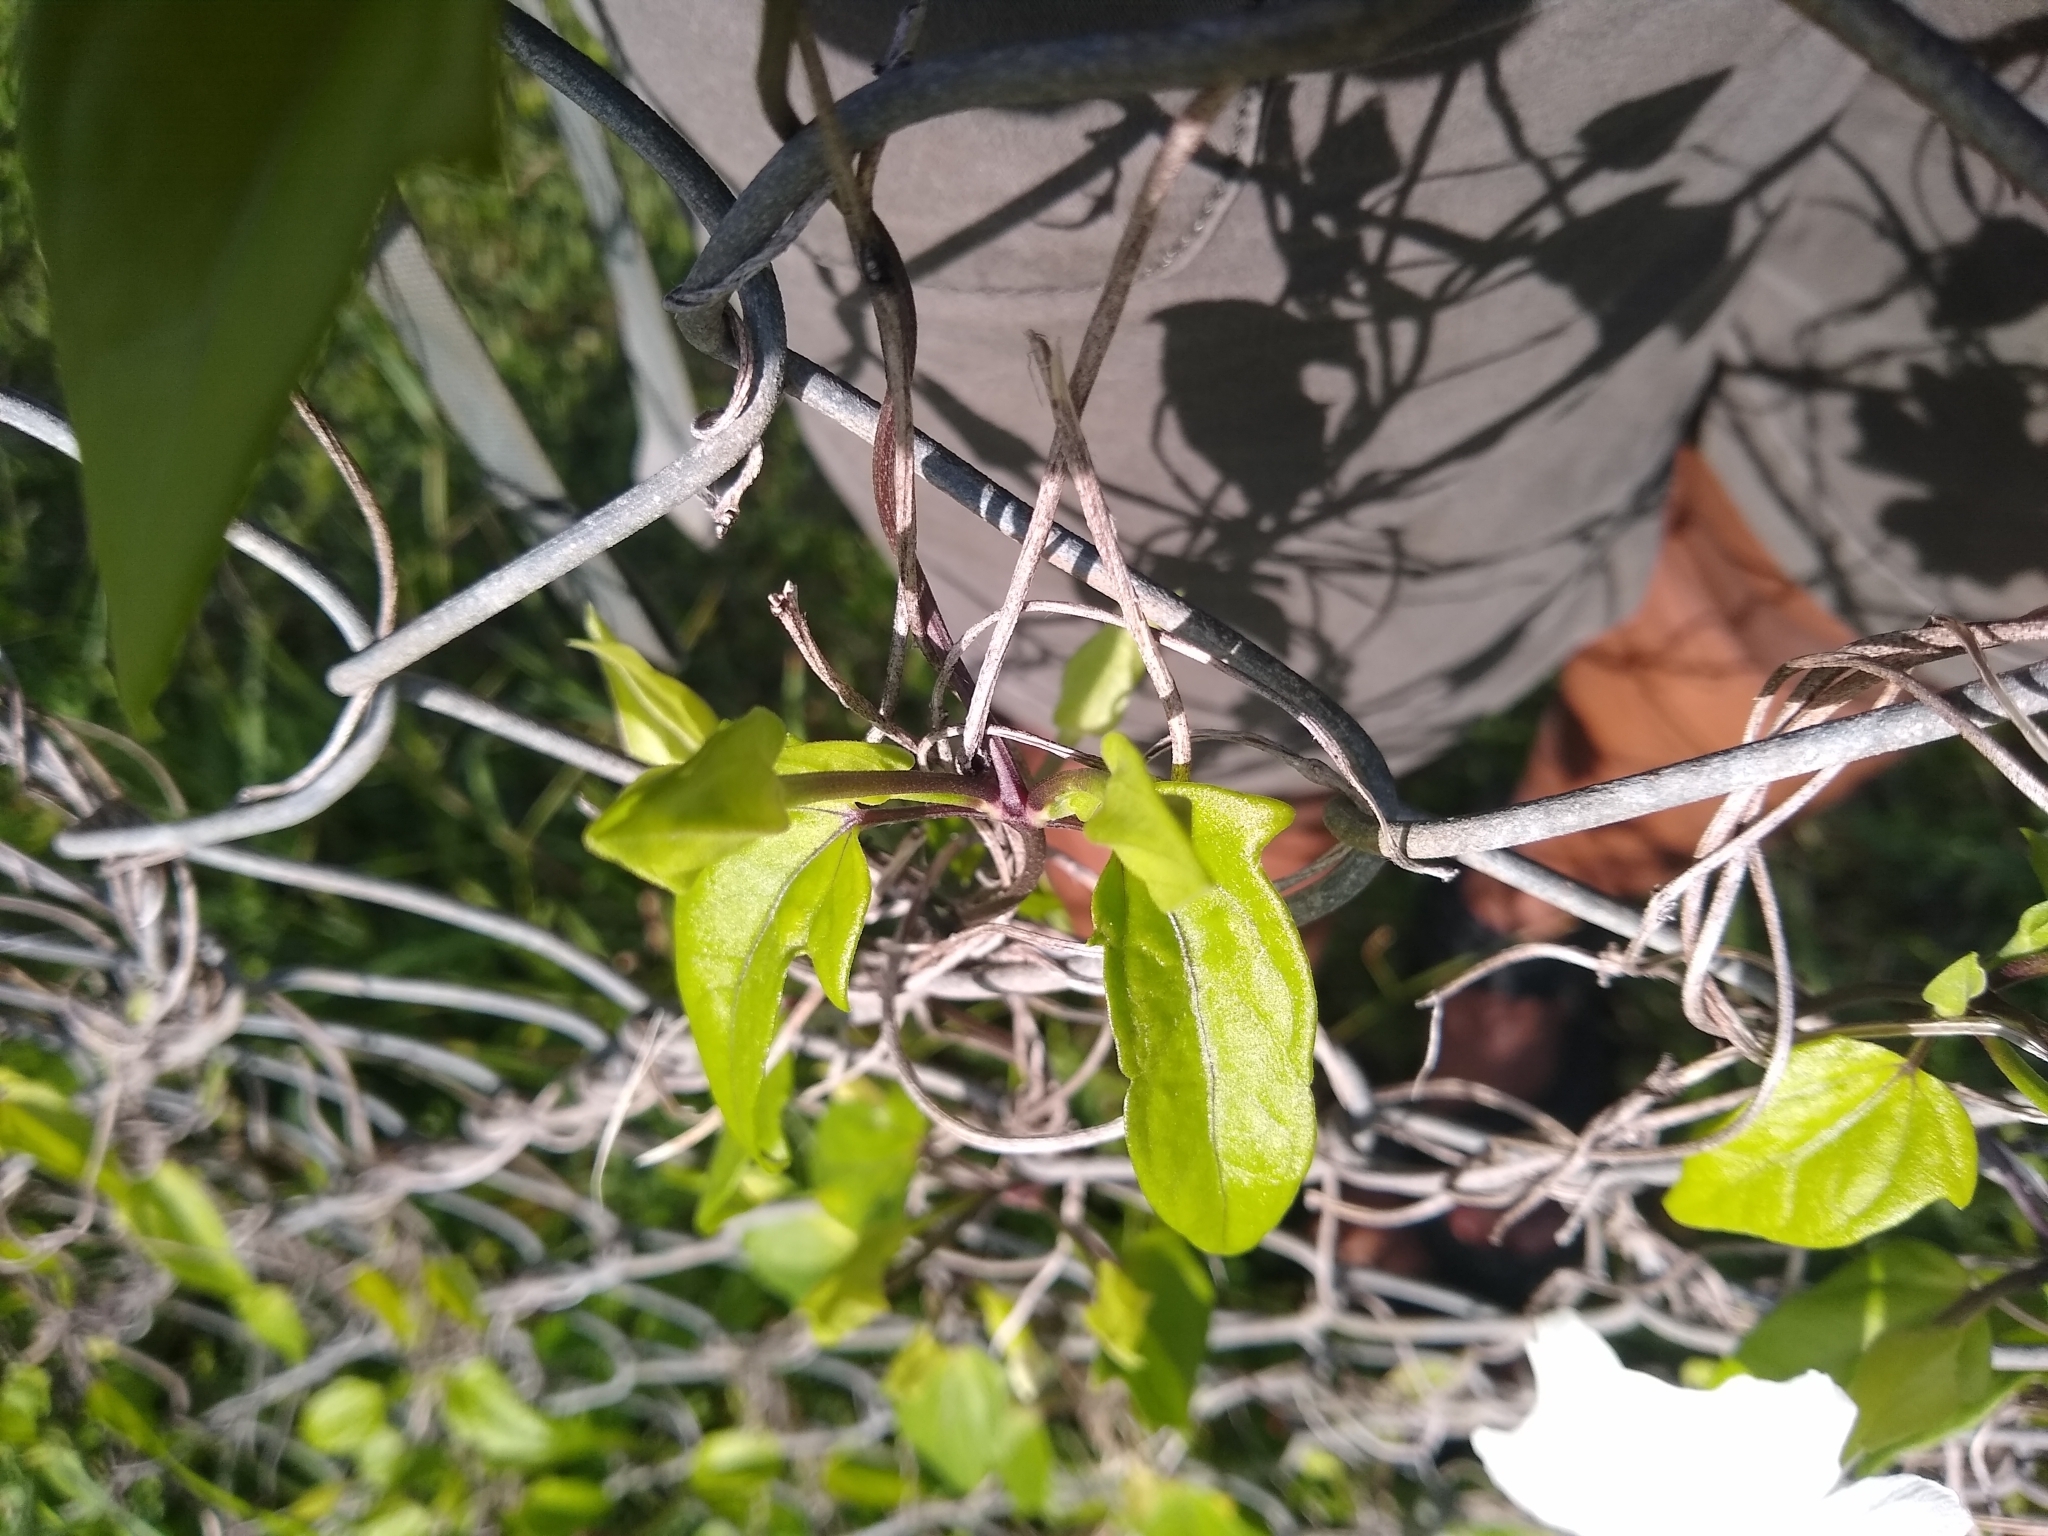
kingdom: Plantae
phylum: Tracheophyta
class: Magnoliopsida
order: Lamiales
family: Acanthaceae
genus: Thunbergia
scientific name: Thunbergia fragrans
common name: Whitelady
